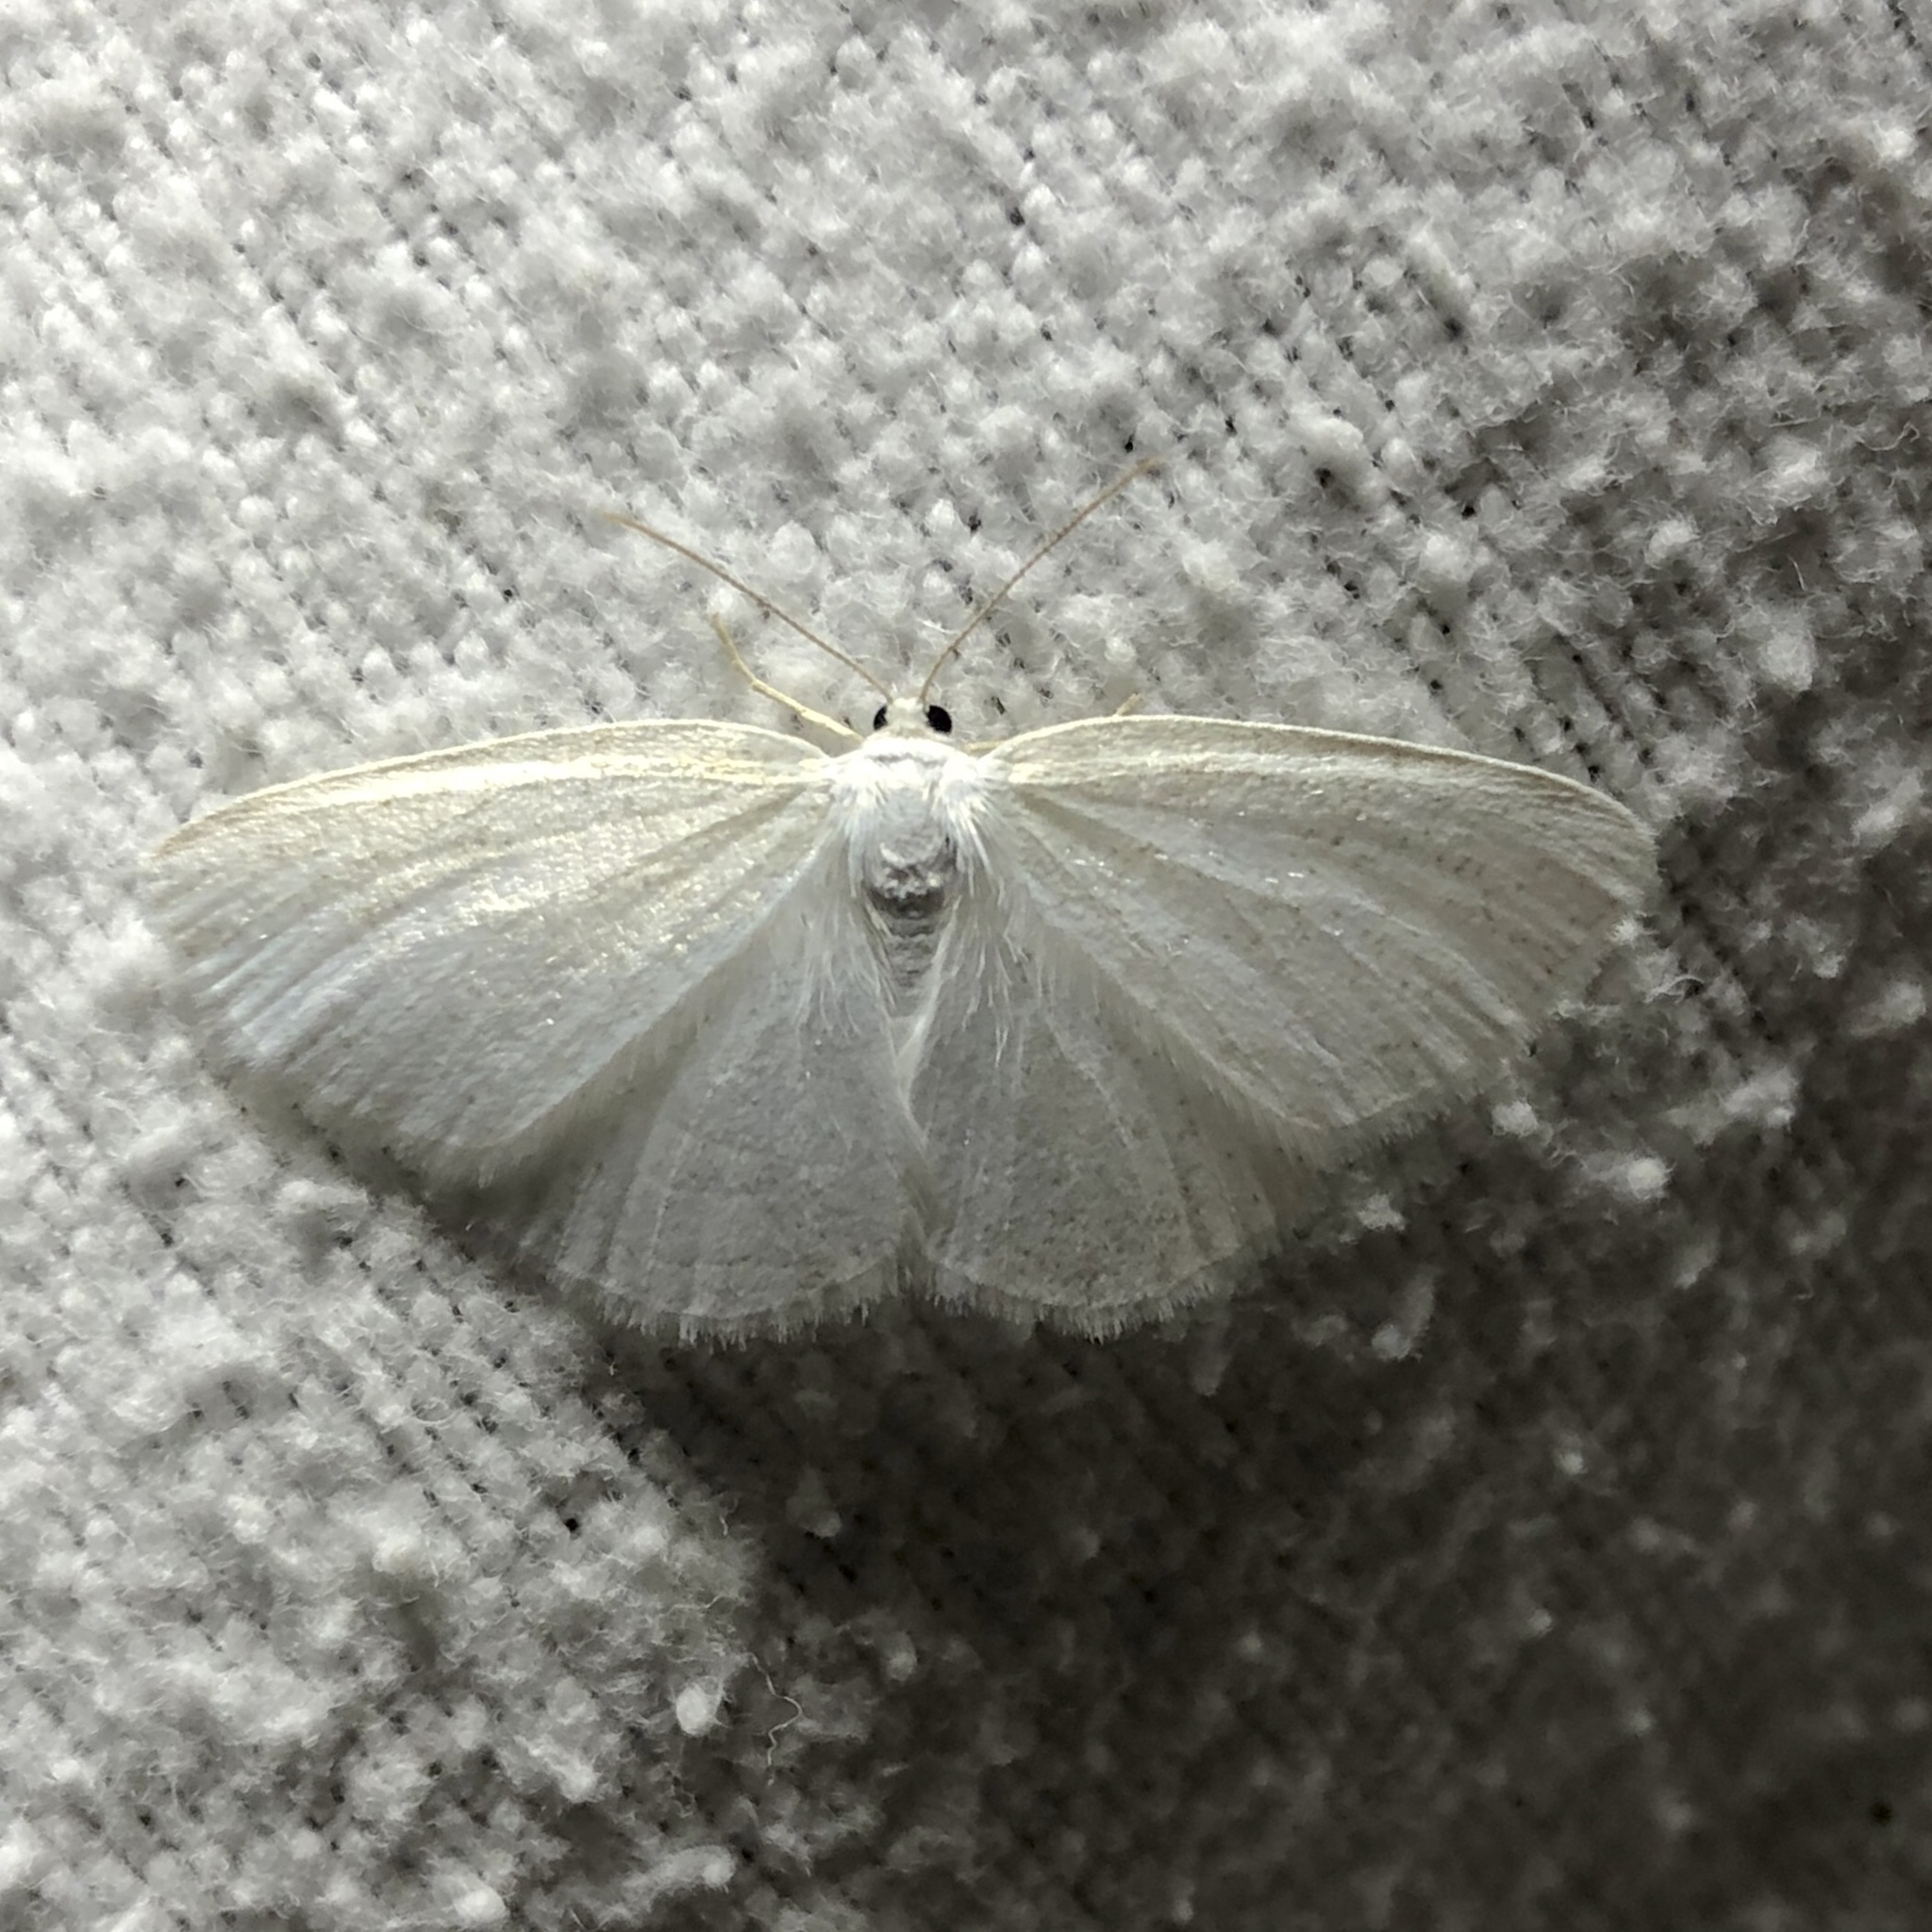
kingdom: Animalia
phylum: Arthropoda
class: Insecta
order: Lepidoptera
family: Geometridae
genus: Protitame
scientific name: Protitame virginalis
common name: Virgin moth
